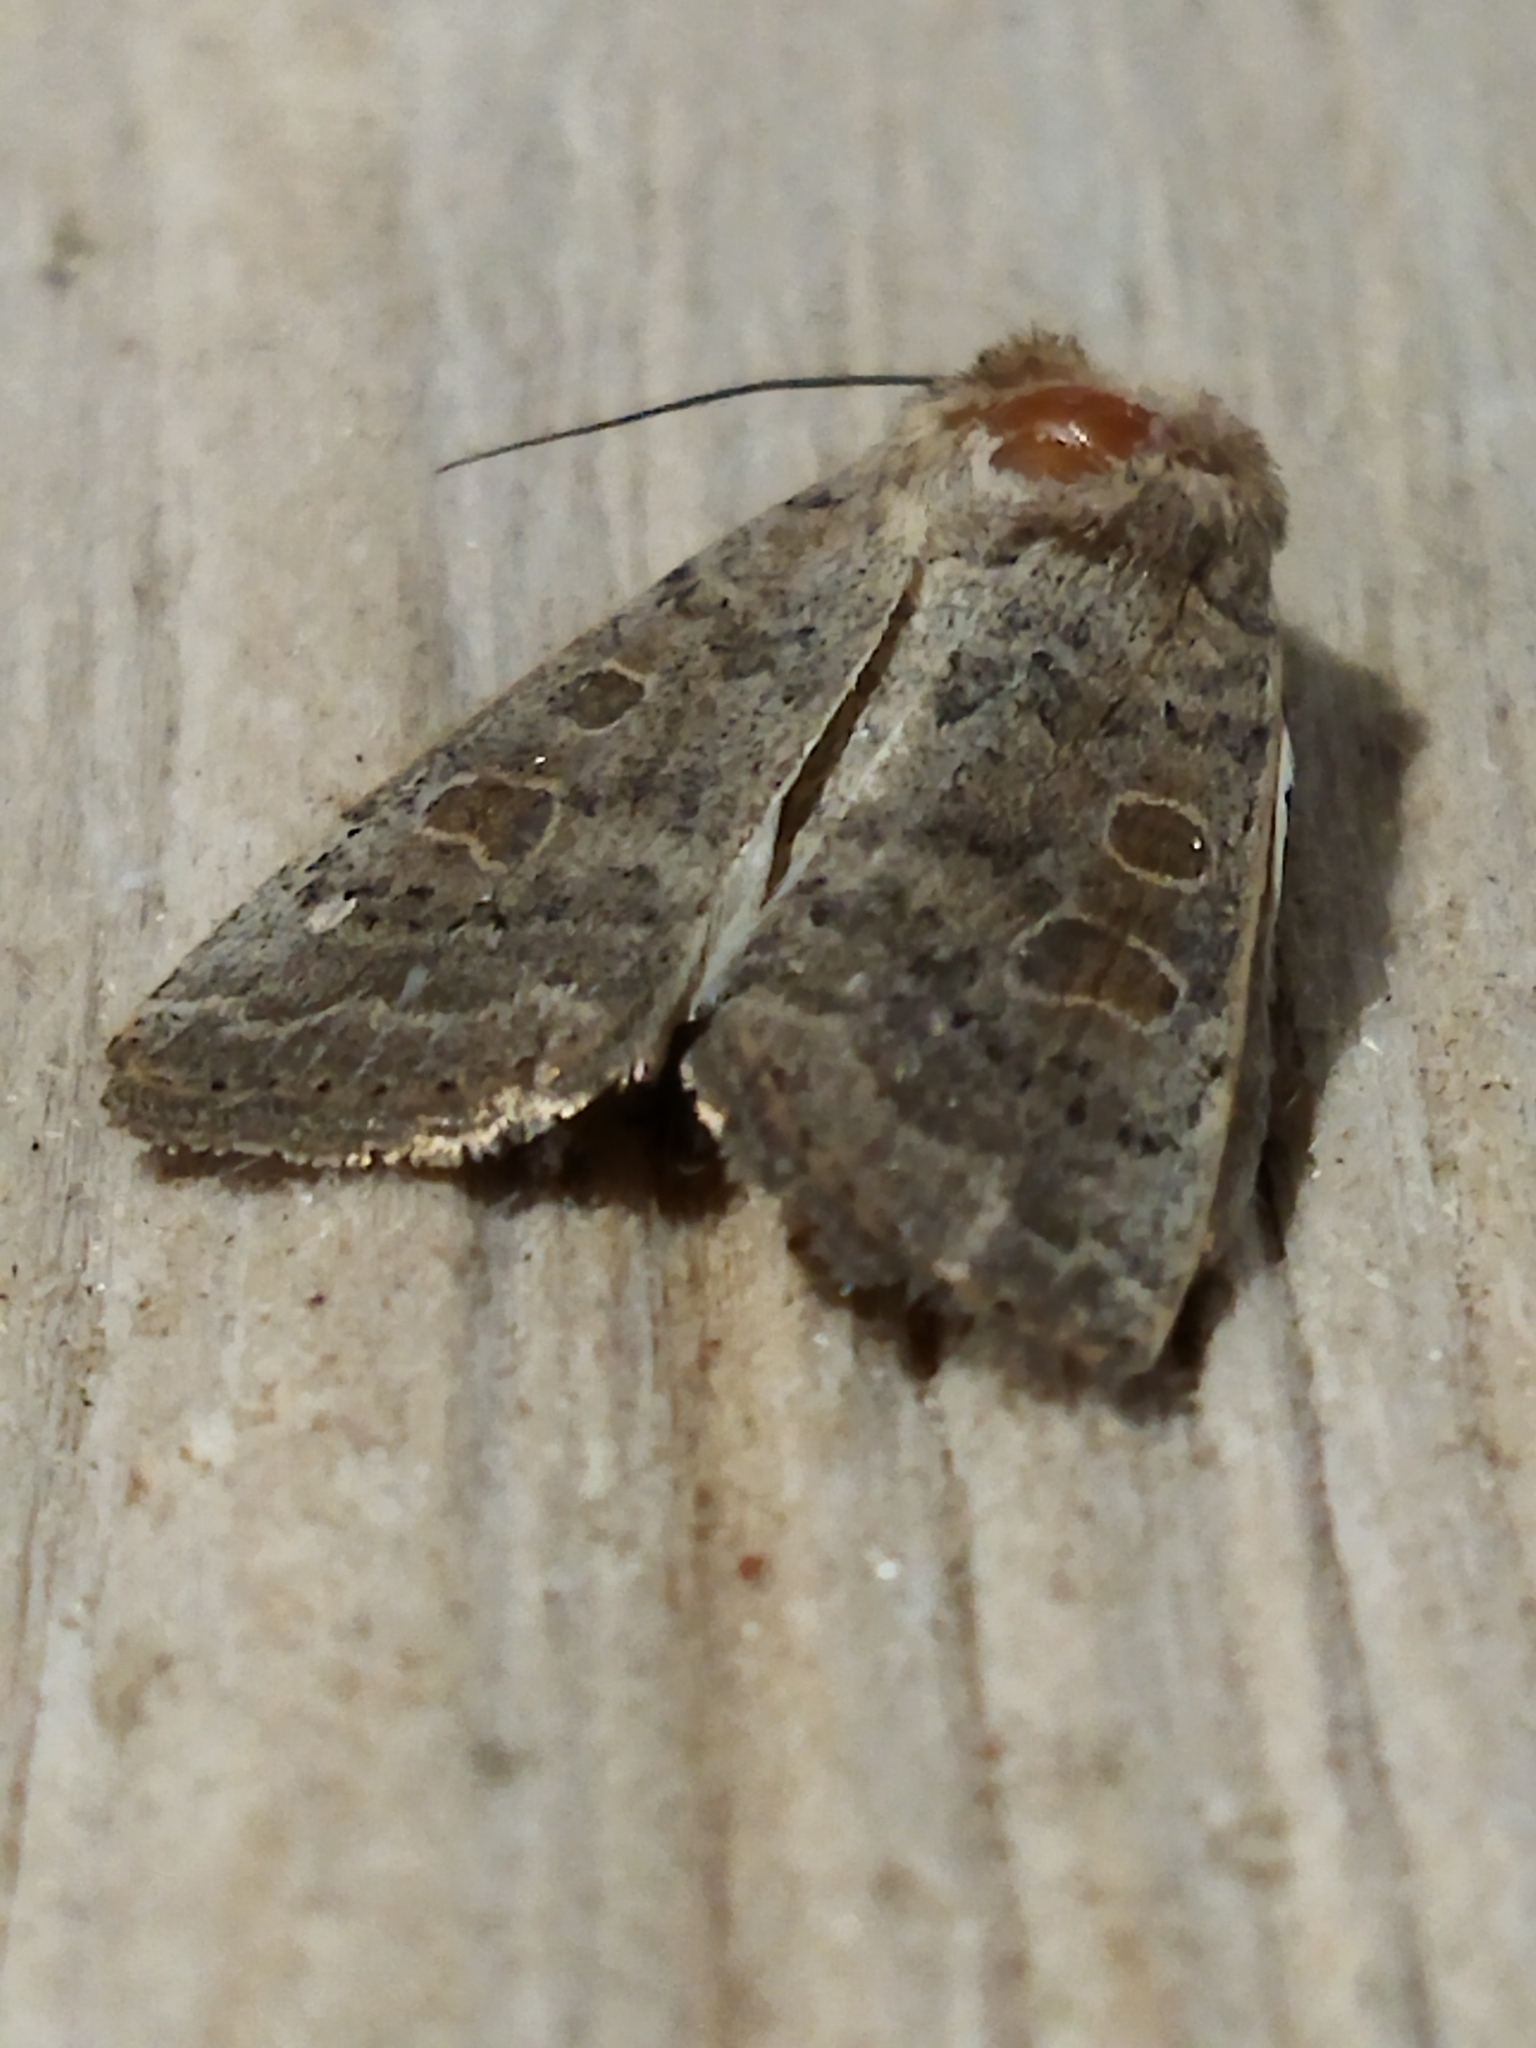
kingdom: Animalia
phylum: Arthropoda
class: Insecta
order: Lepidoptera
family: Noctuidae
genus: Hoplodrina
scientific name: Hoplodrina ambigua
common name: Vine's rustic
